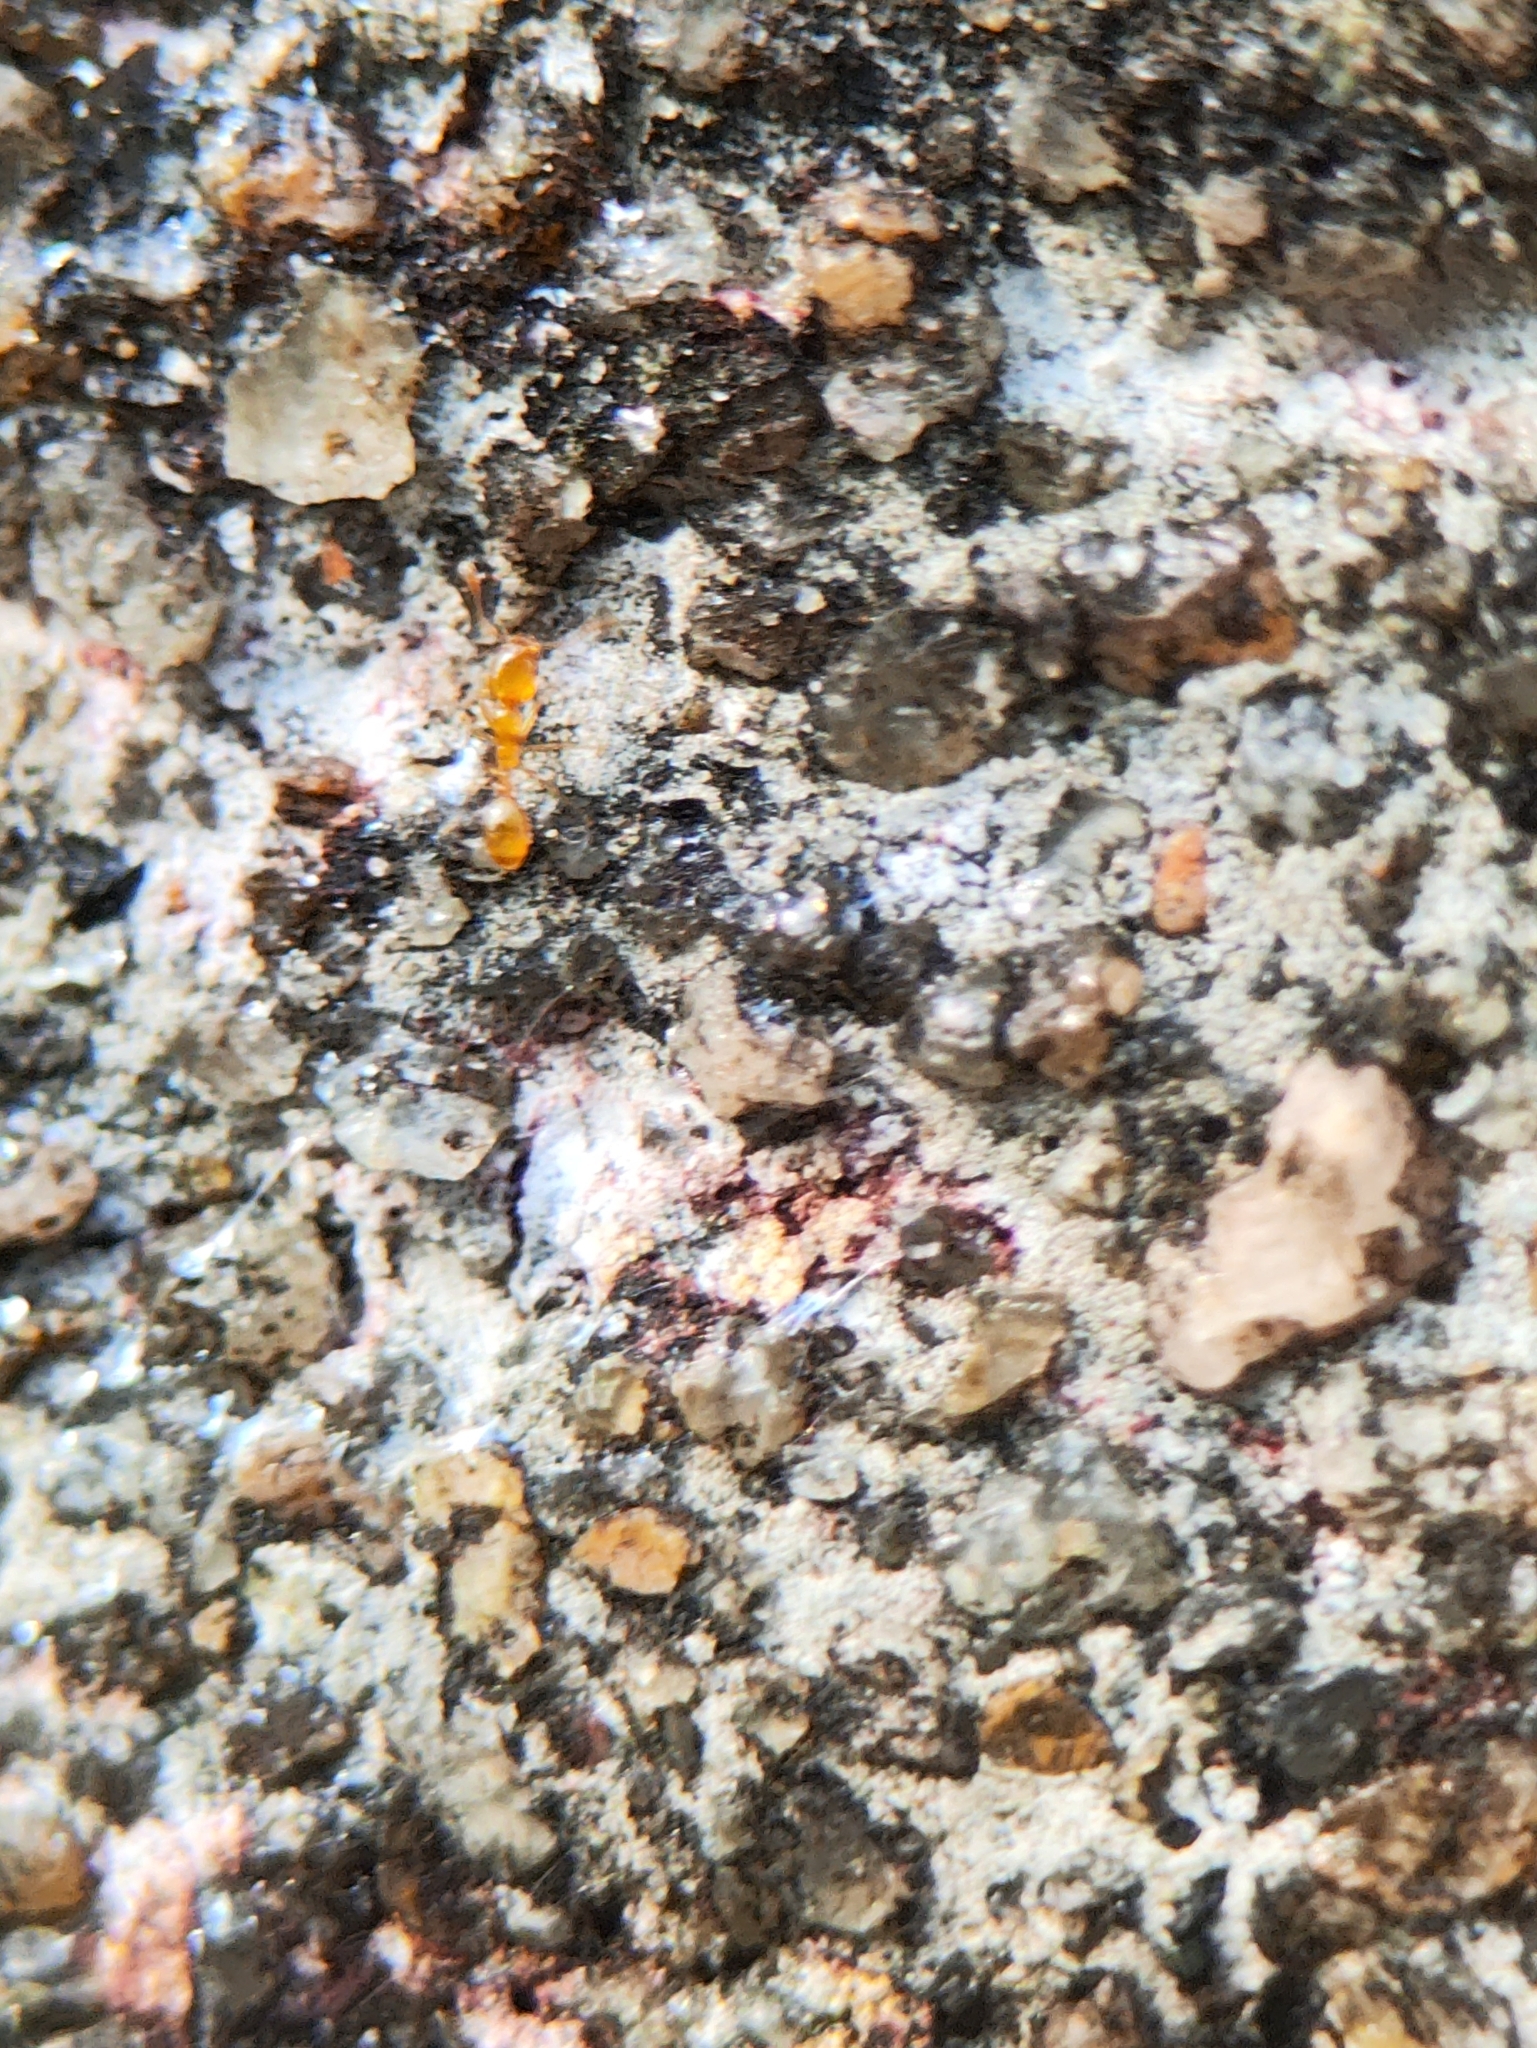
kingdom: Animalia
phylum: Arthropoda
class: Insecta
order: Hymenoptera
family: Formicidae
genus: Monomorium
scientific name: Monomorium atomum
